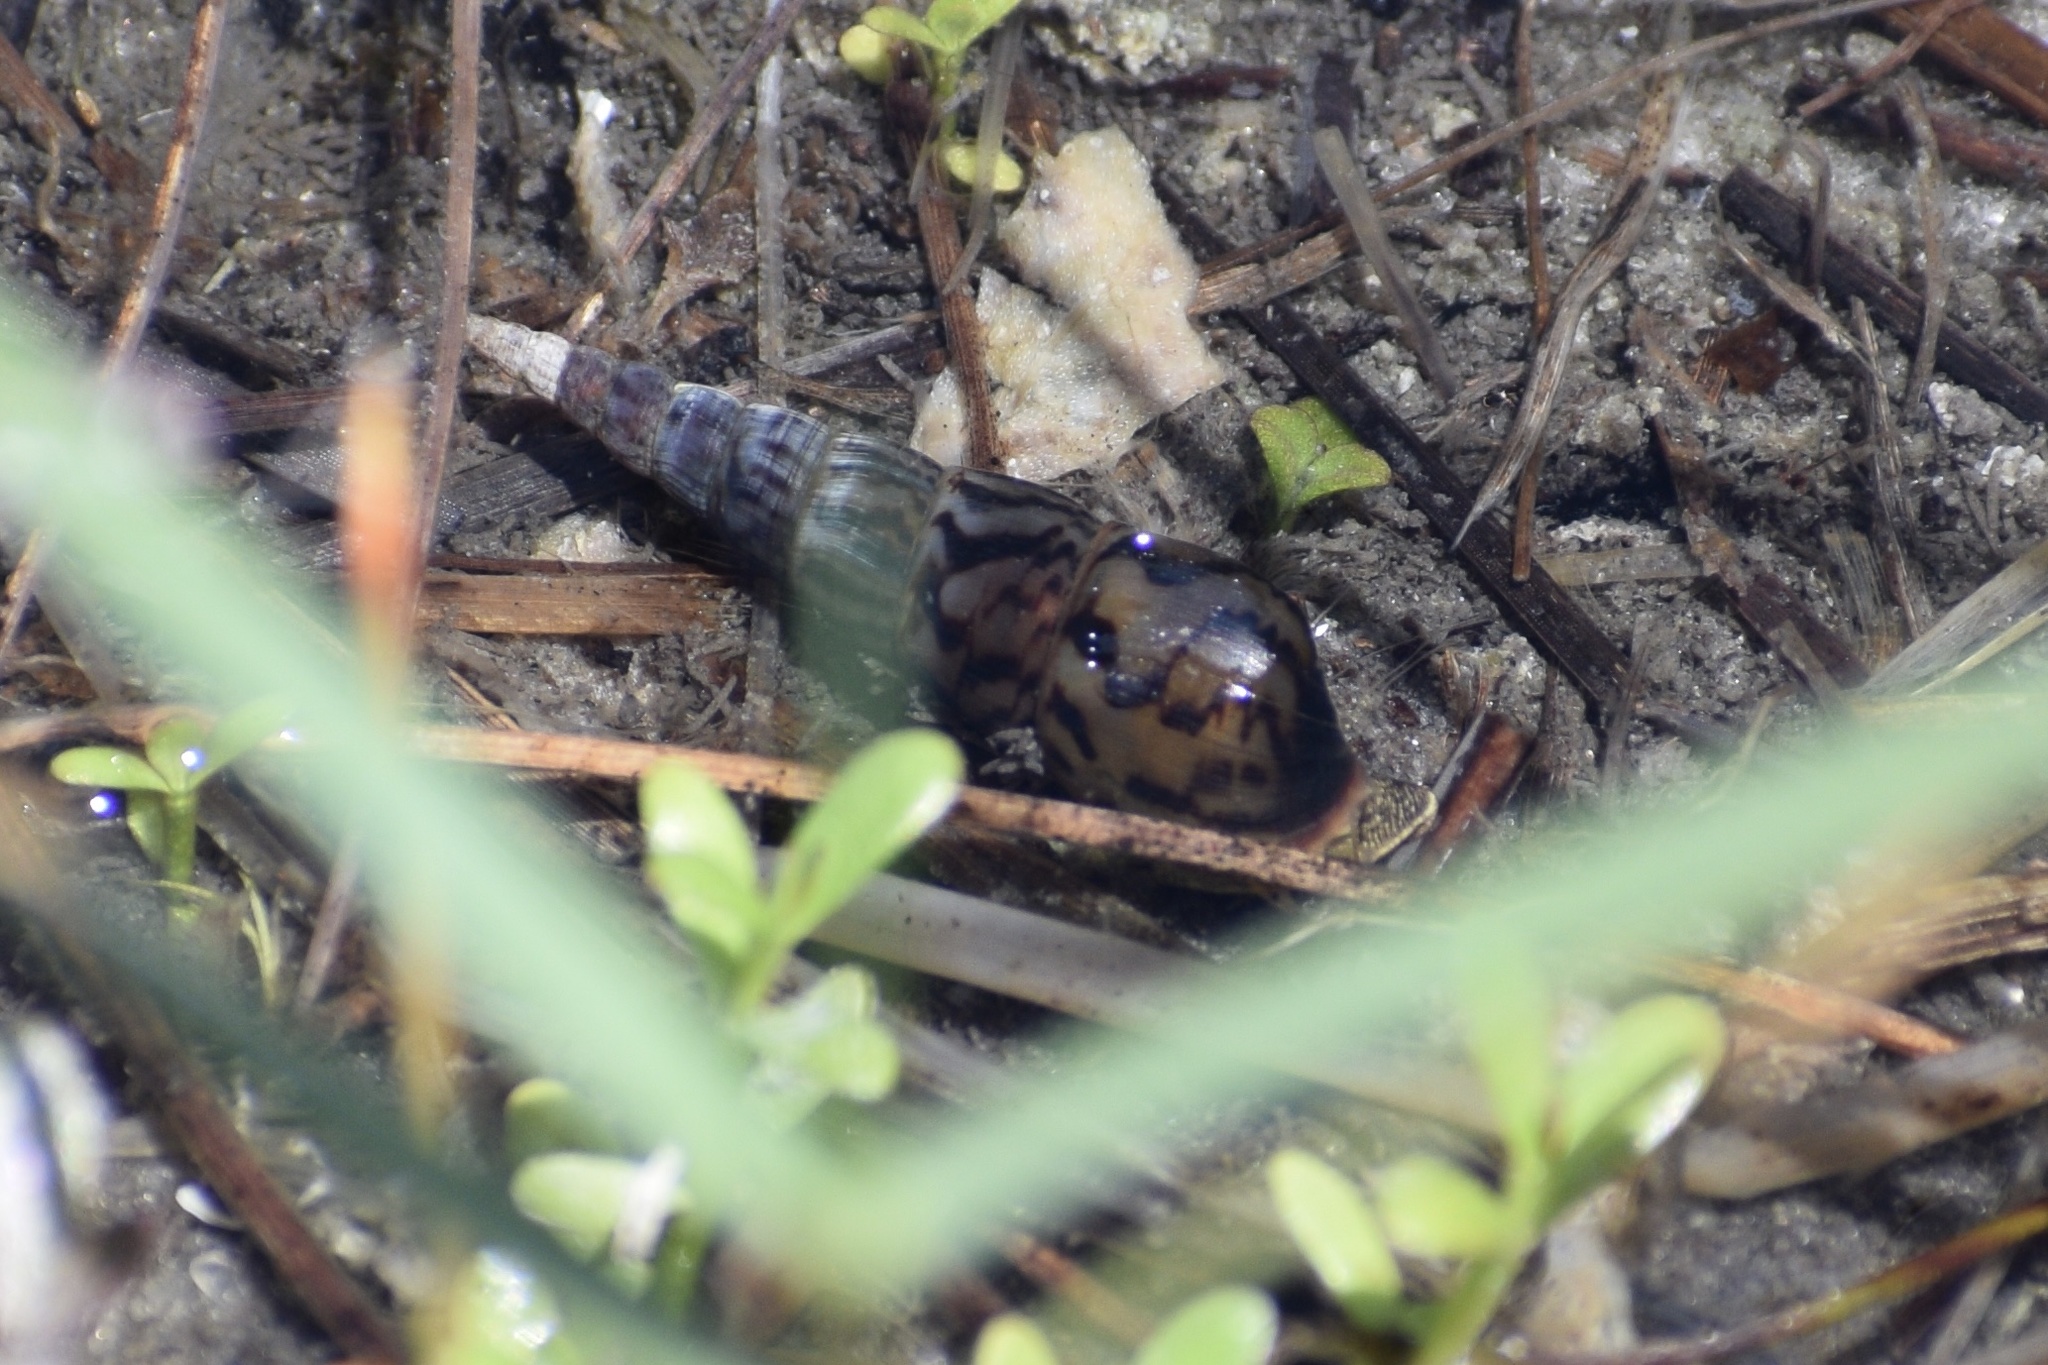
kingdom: Animalia
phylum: Mollusca
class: Gastropoda
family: Thiaridae
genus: Melanoides
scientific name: Melanoides tuberculata
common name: Red-rim melania
